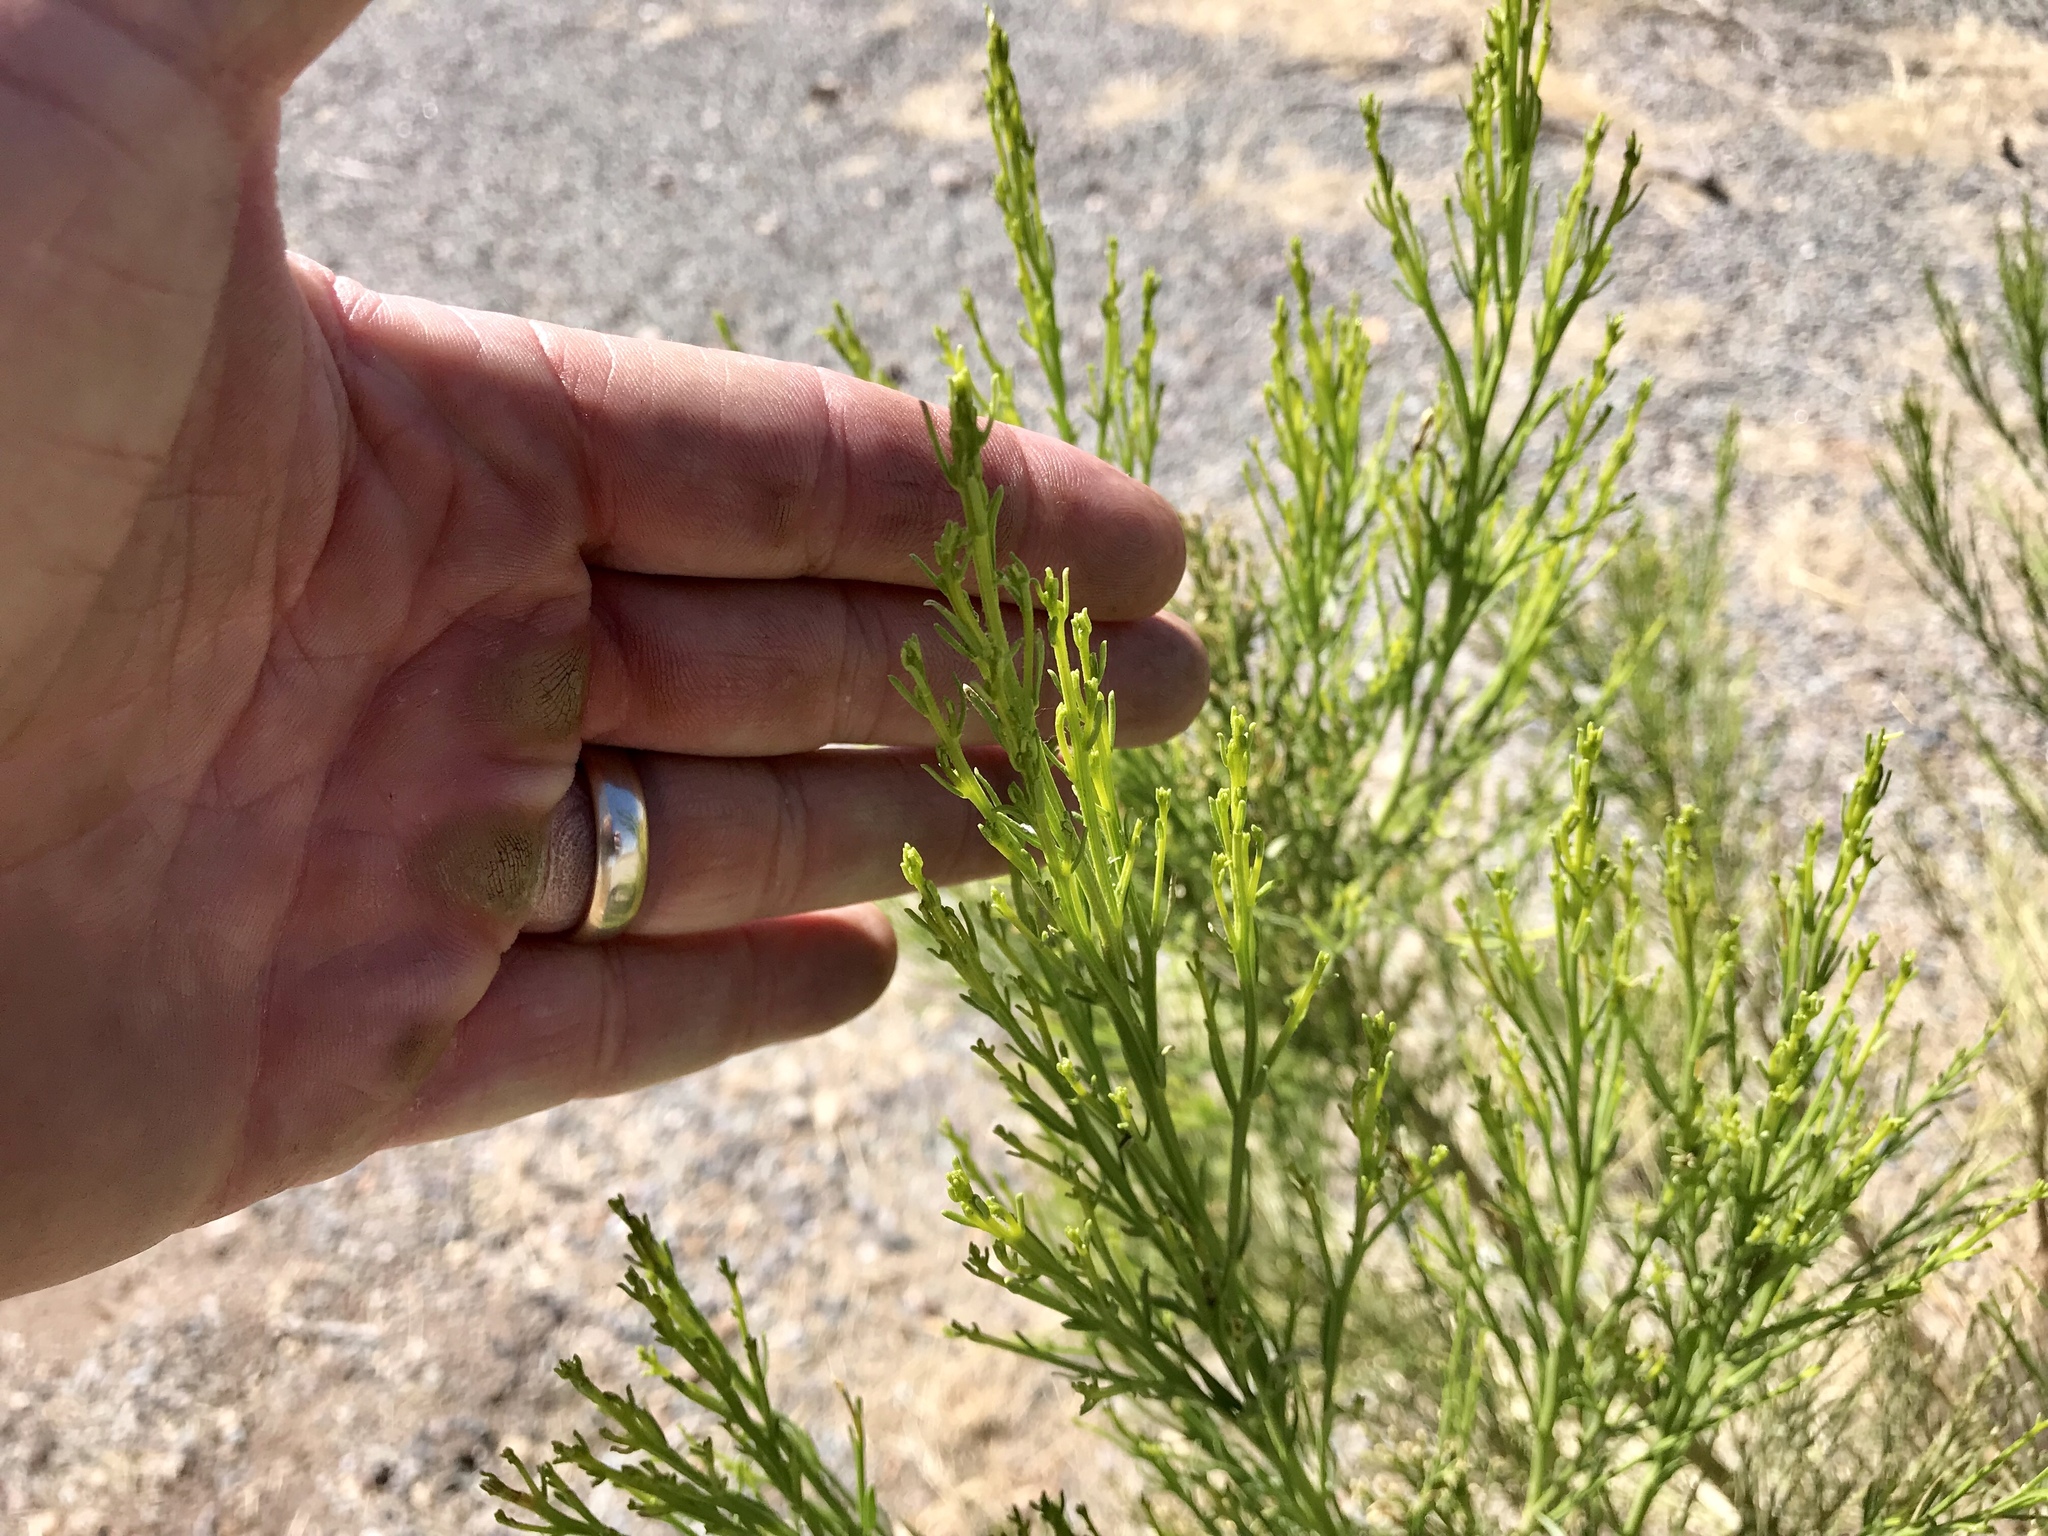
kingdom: Plantae
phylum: Tracheophyta
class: Magnoliopsida
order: Asterales
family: Asteraceae
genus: Baccharis
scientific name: Baccharis sarothroides
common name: Desert-broom
